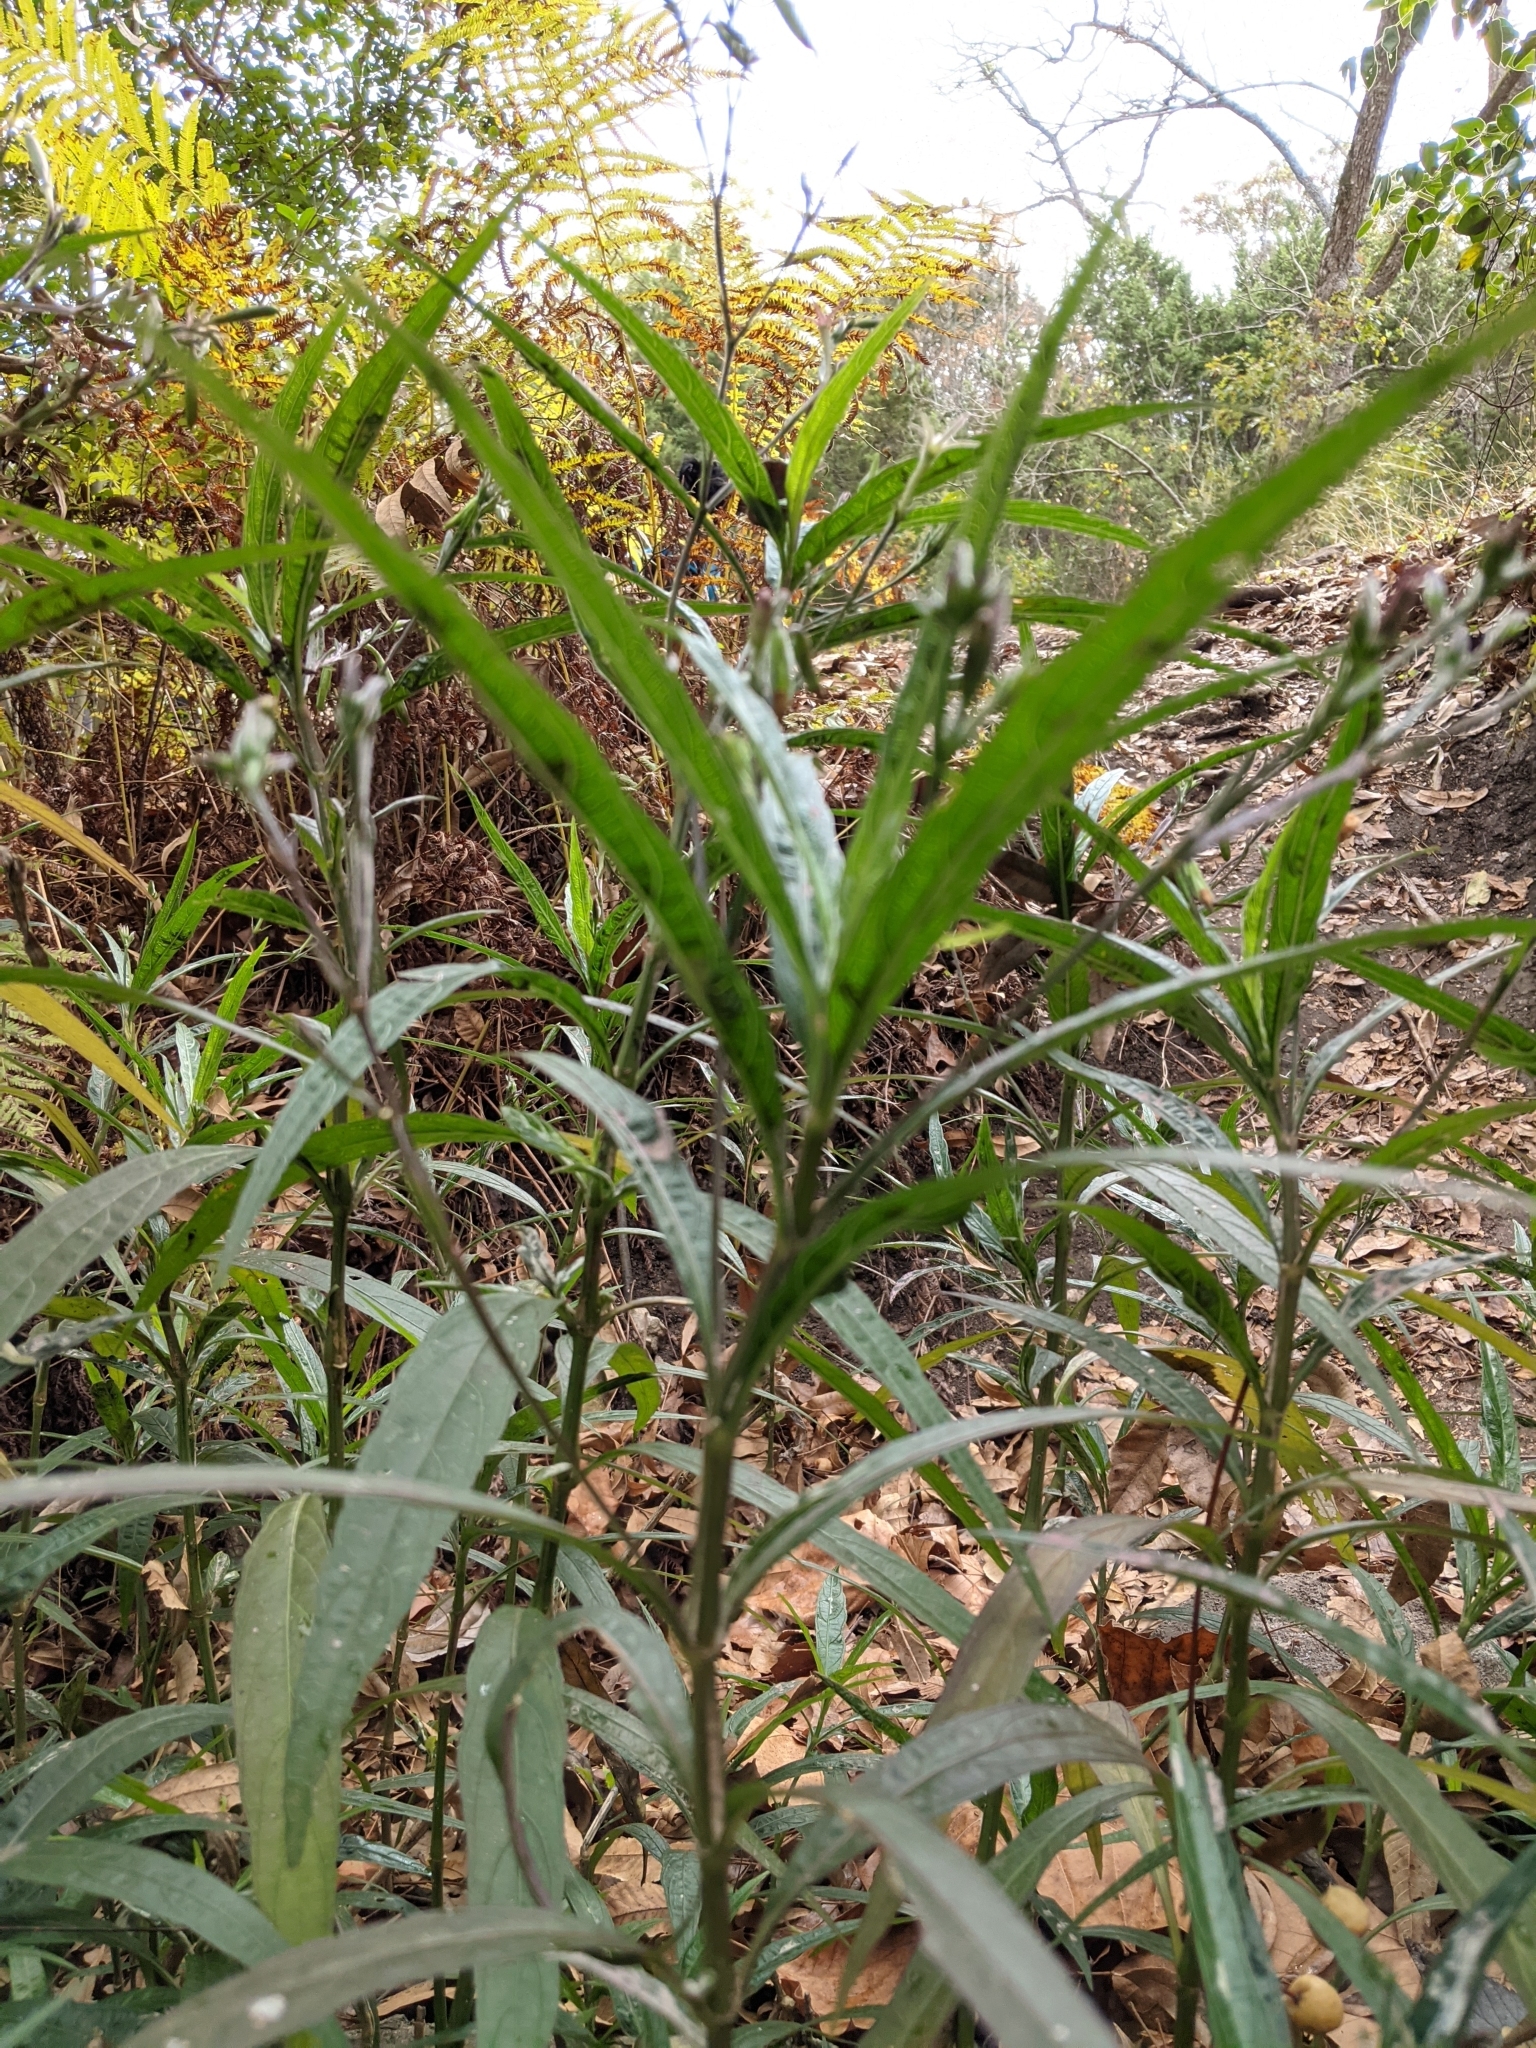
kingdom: Plantae
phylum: Tracheophyta
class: Magnoliopsida
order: Lamiales
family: Acanthaceae
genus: Ruellia
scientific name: Ruellia simplex
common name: Softseed wild petunia
